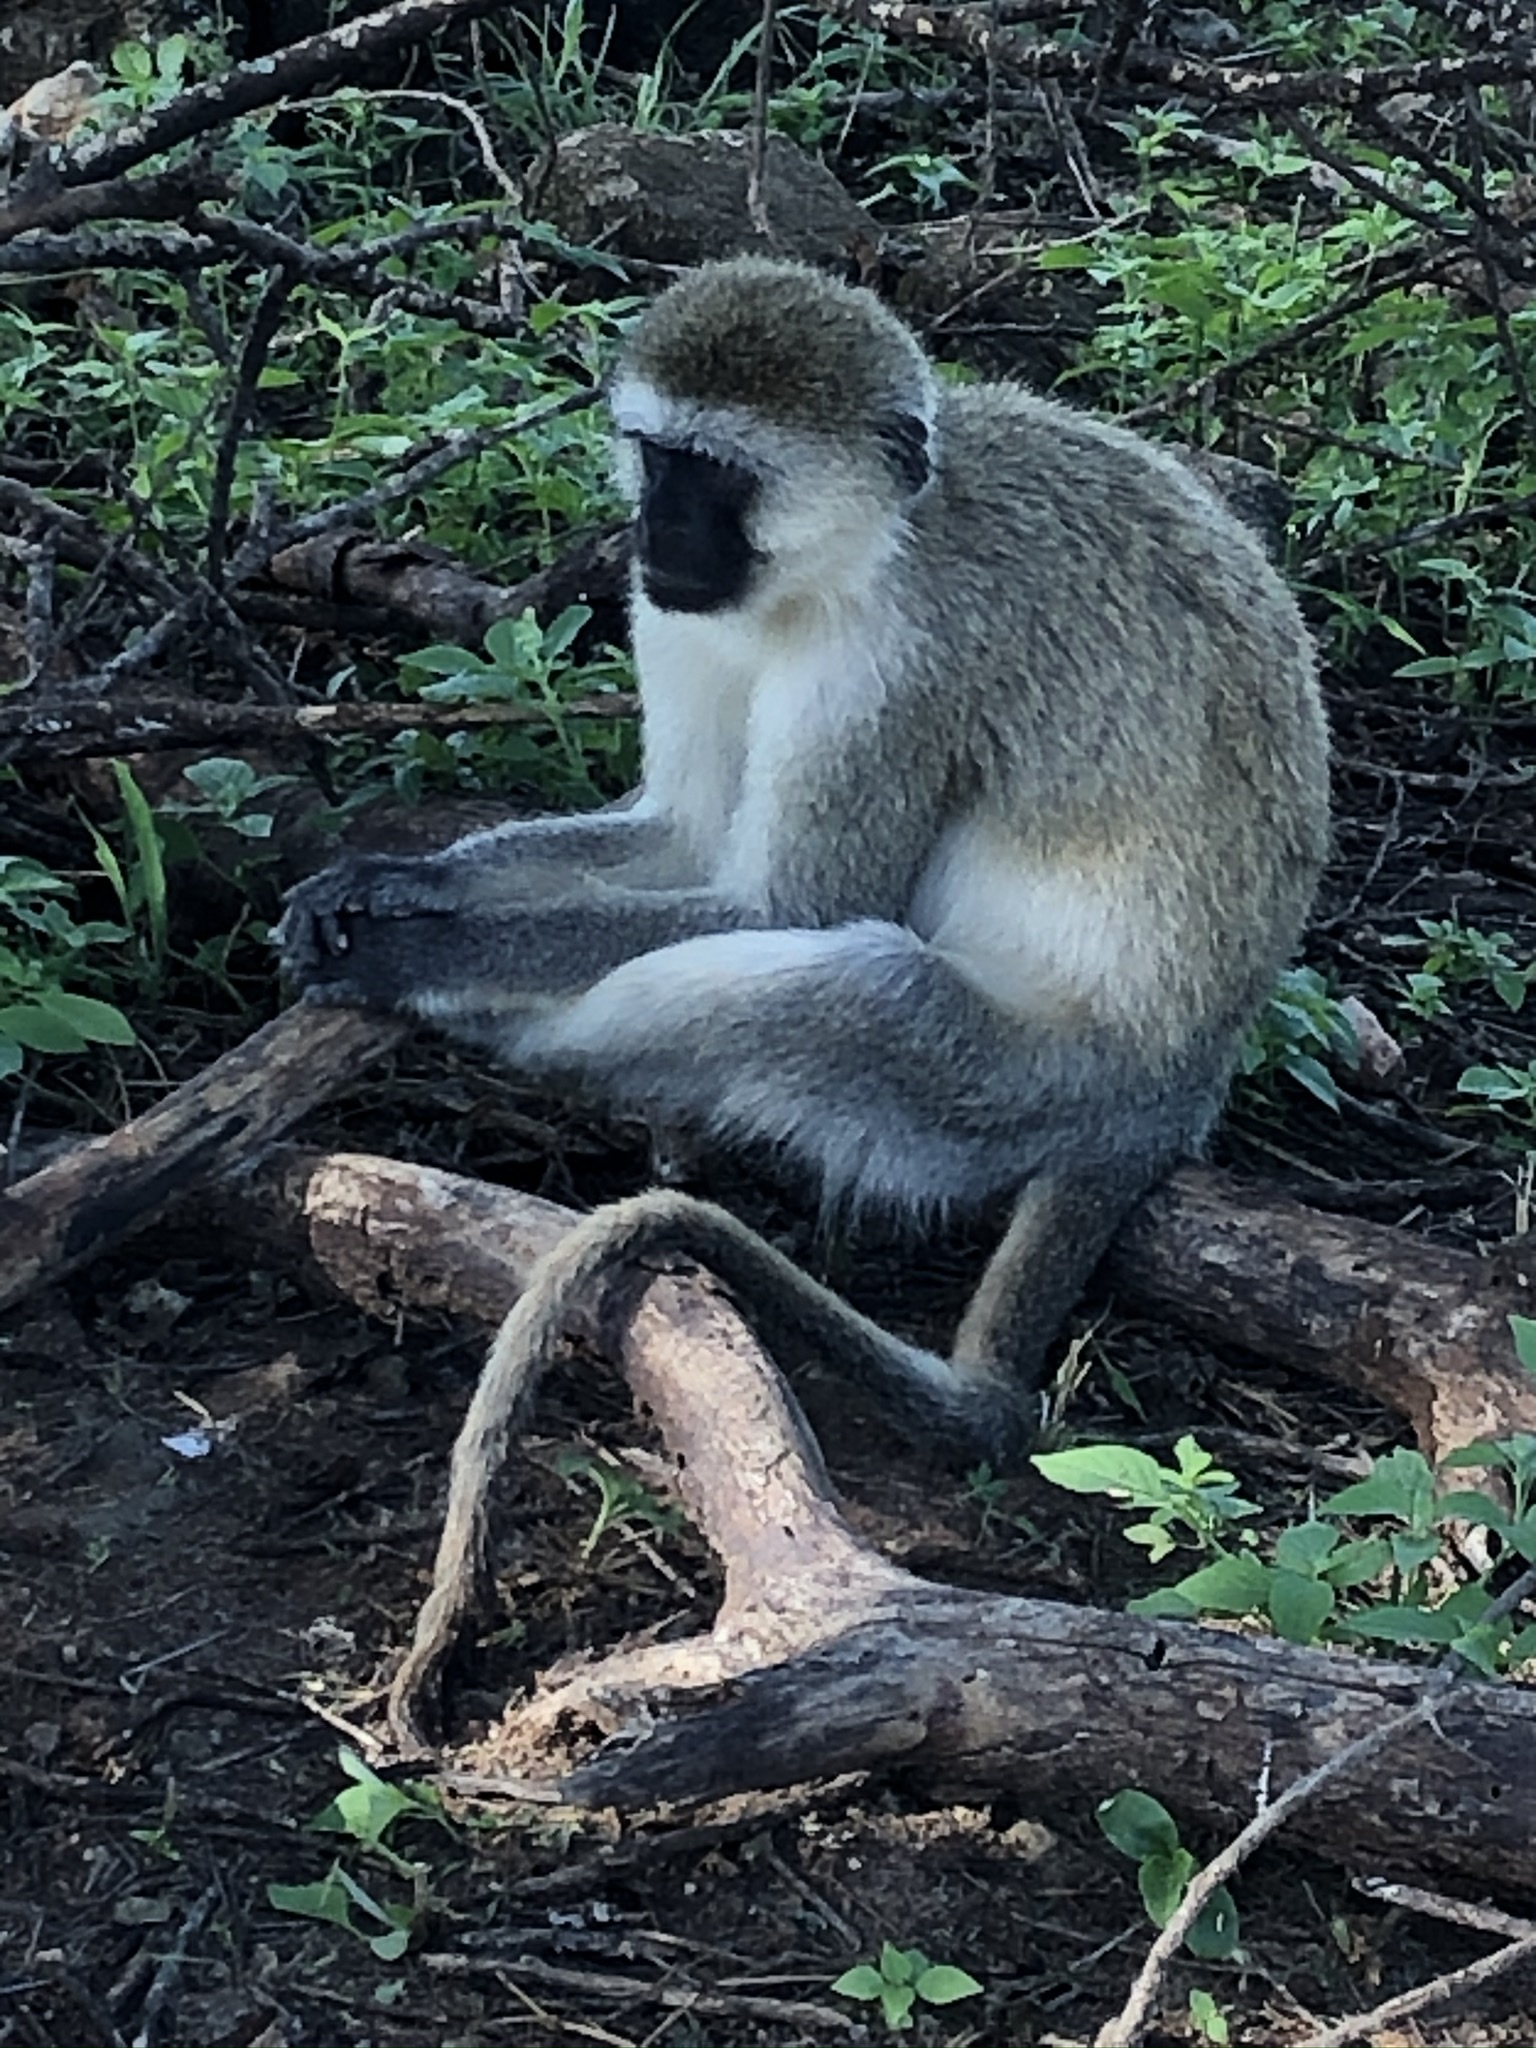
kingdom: Animalia
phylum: Chordata
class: Mammalia
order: Primates
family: Cercopithecidae
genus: Chlorocebus
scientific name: Chlorocebus pygerythrus
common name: Vervet monkey
